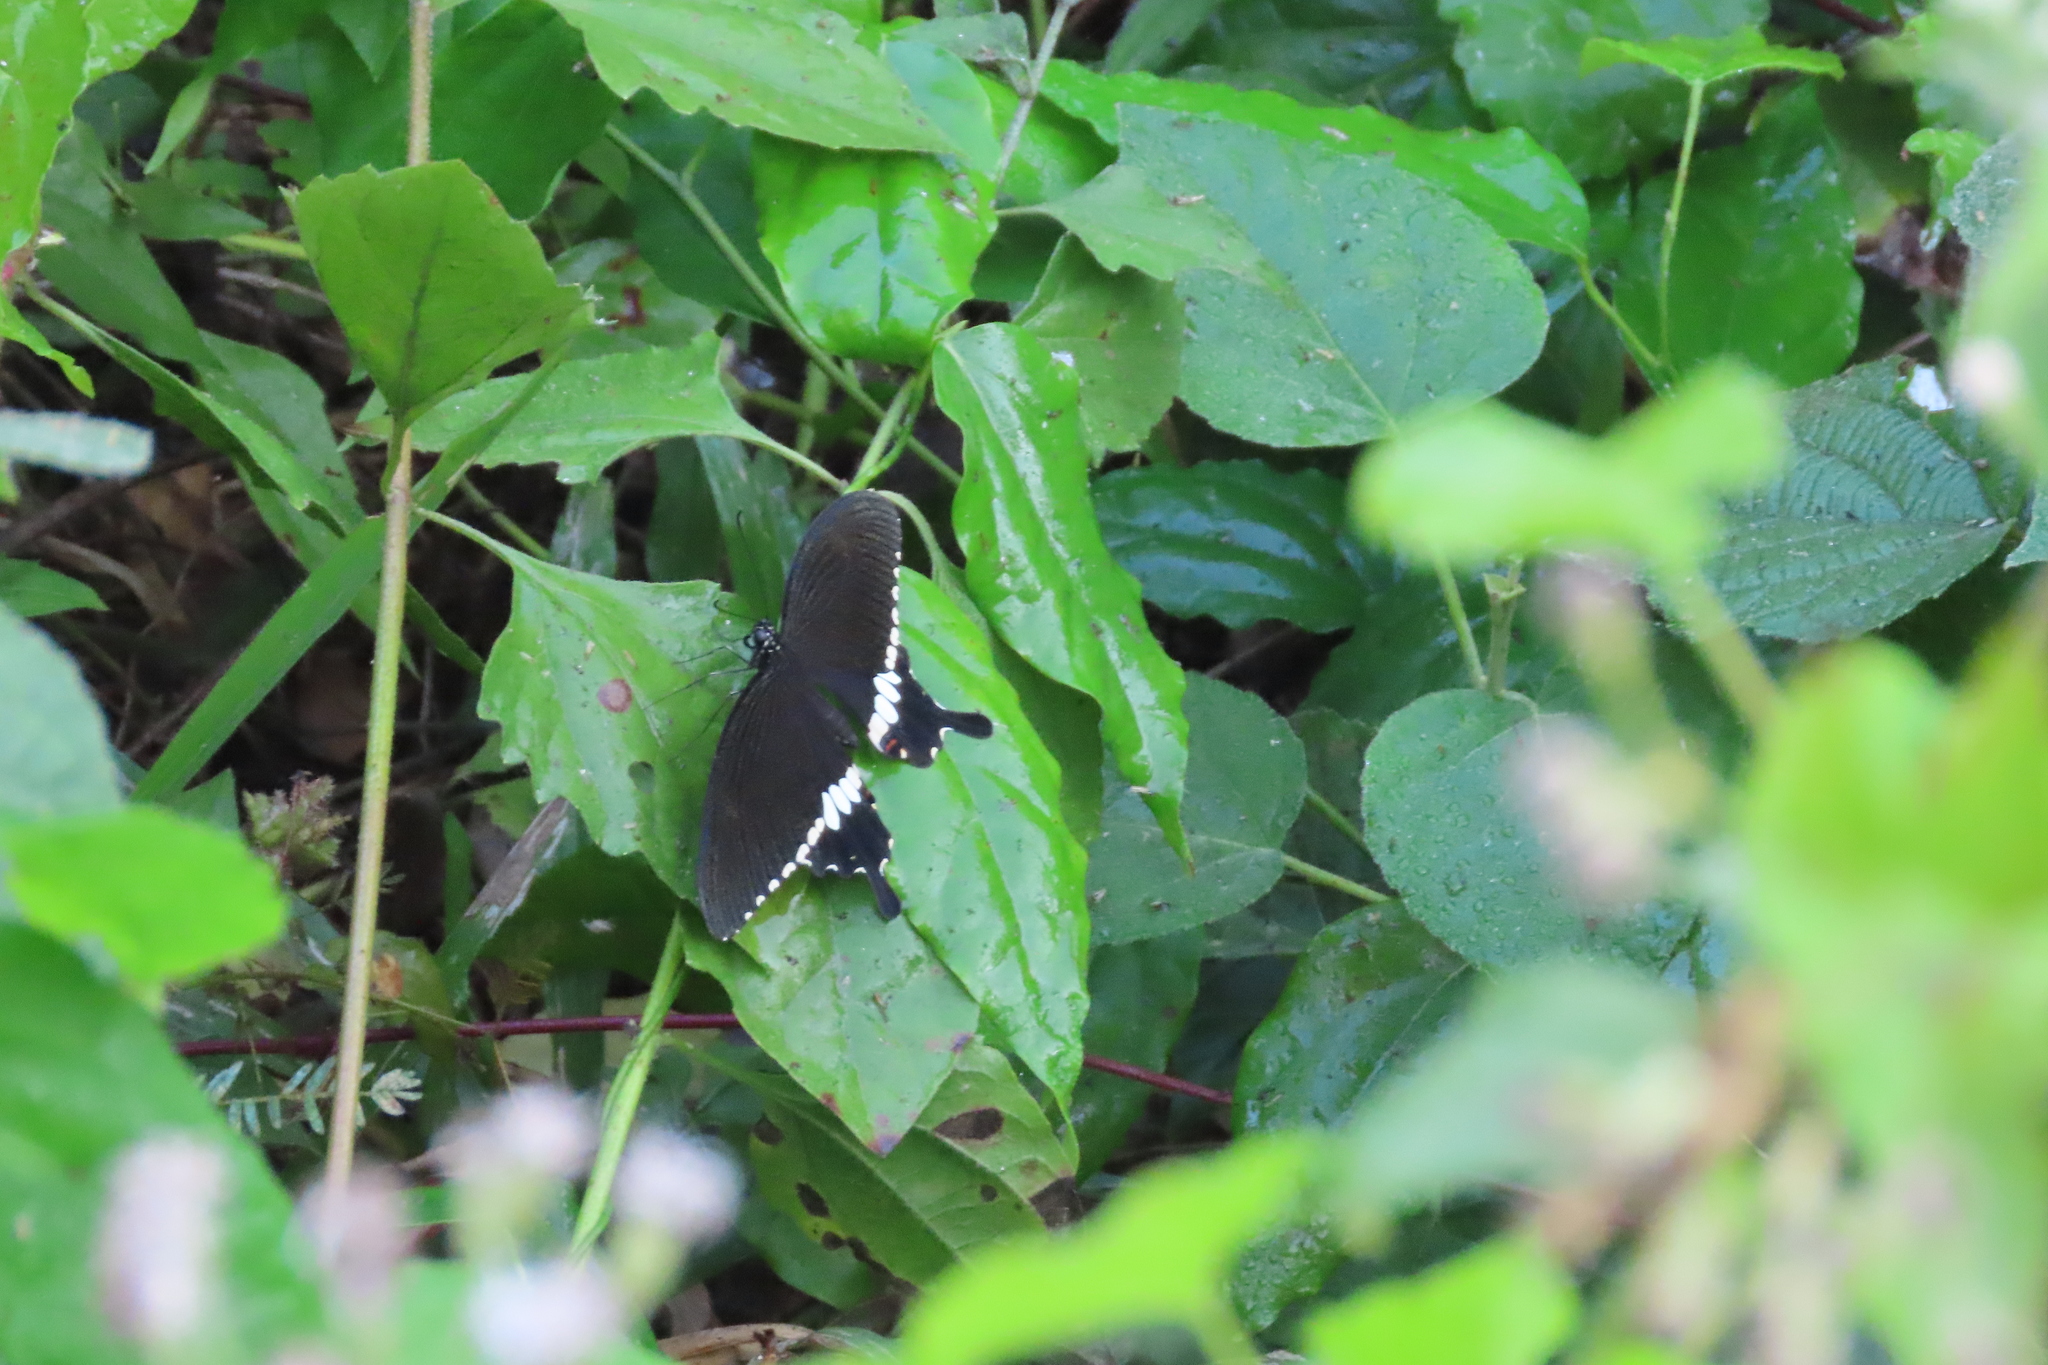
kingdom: Animalia
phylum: Arthropoda
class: Insecta
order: Lepidoptera
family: Papilionidae
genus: Papilio
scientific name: Papilio polytes
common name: Common mormon
